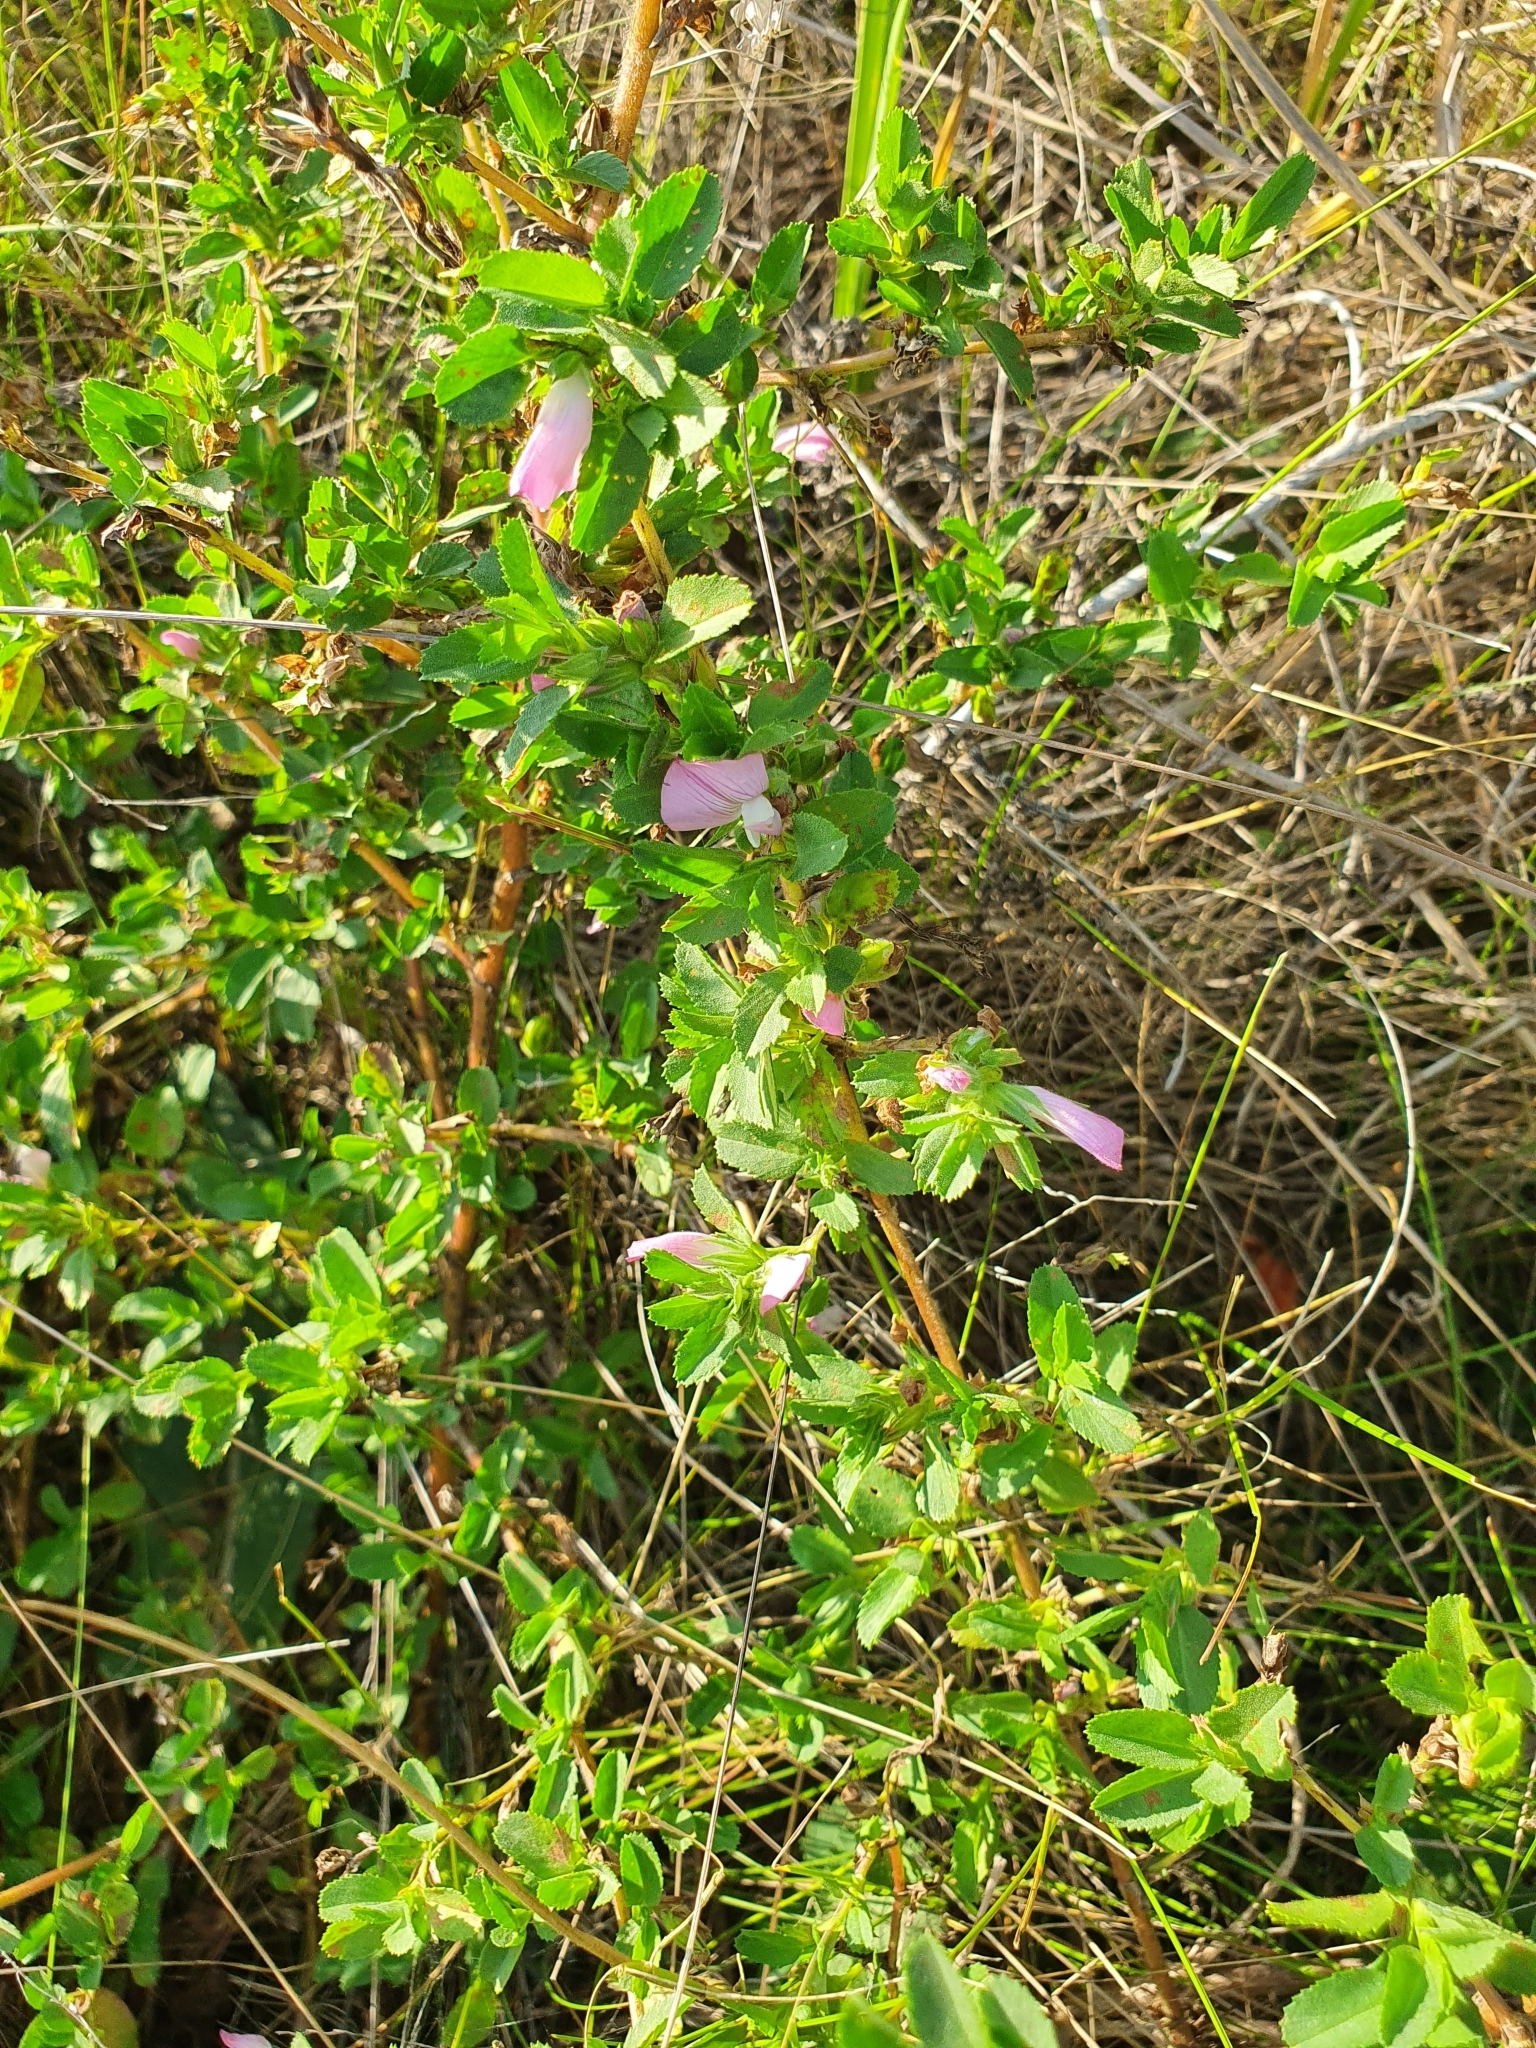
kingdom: Plantae
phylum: Tracheophyta
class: Magnoliopsida
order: Fabales
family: Fabaceae
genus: Ononis
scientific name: Ononis arvensis
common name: Field restharrow
